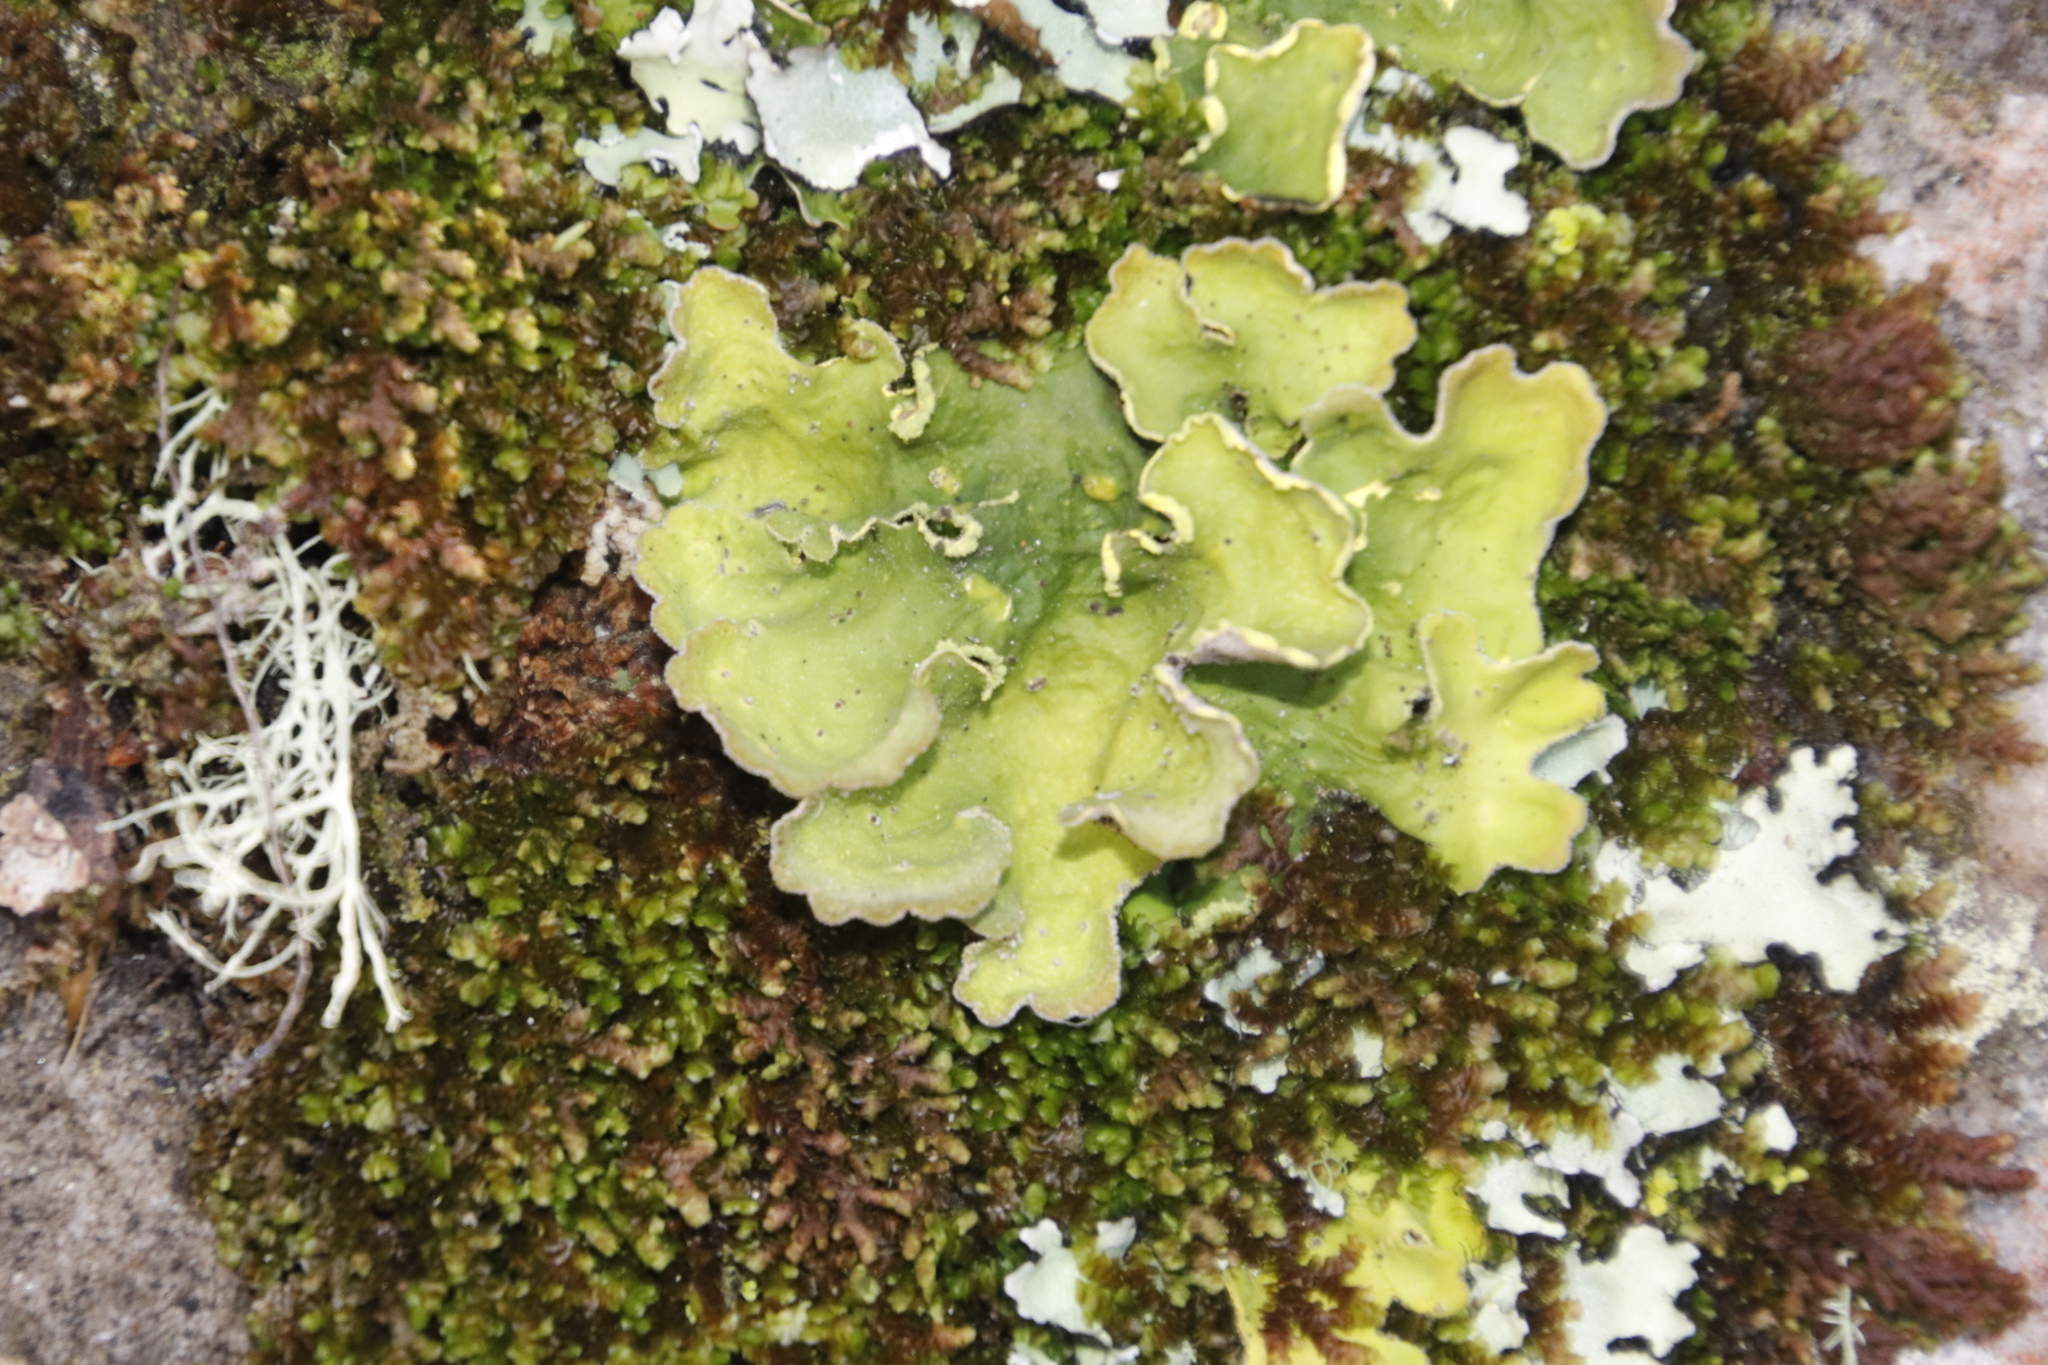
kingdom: Fungi
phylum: Ascomycota
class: Lecanoromycetes
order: Peltigerales
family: Lobariaceae
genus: Pseudocyphellaria
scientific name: Pseudocyphellaria aurata
